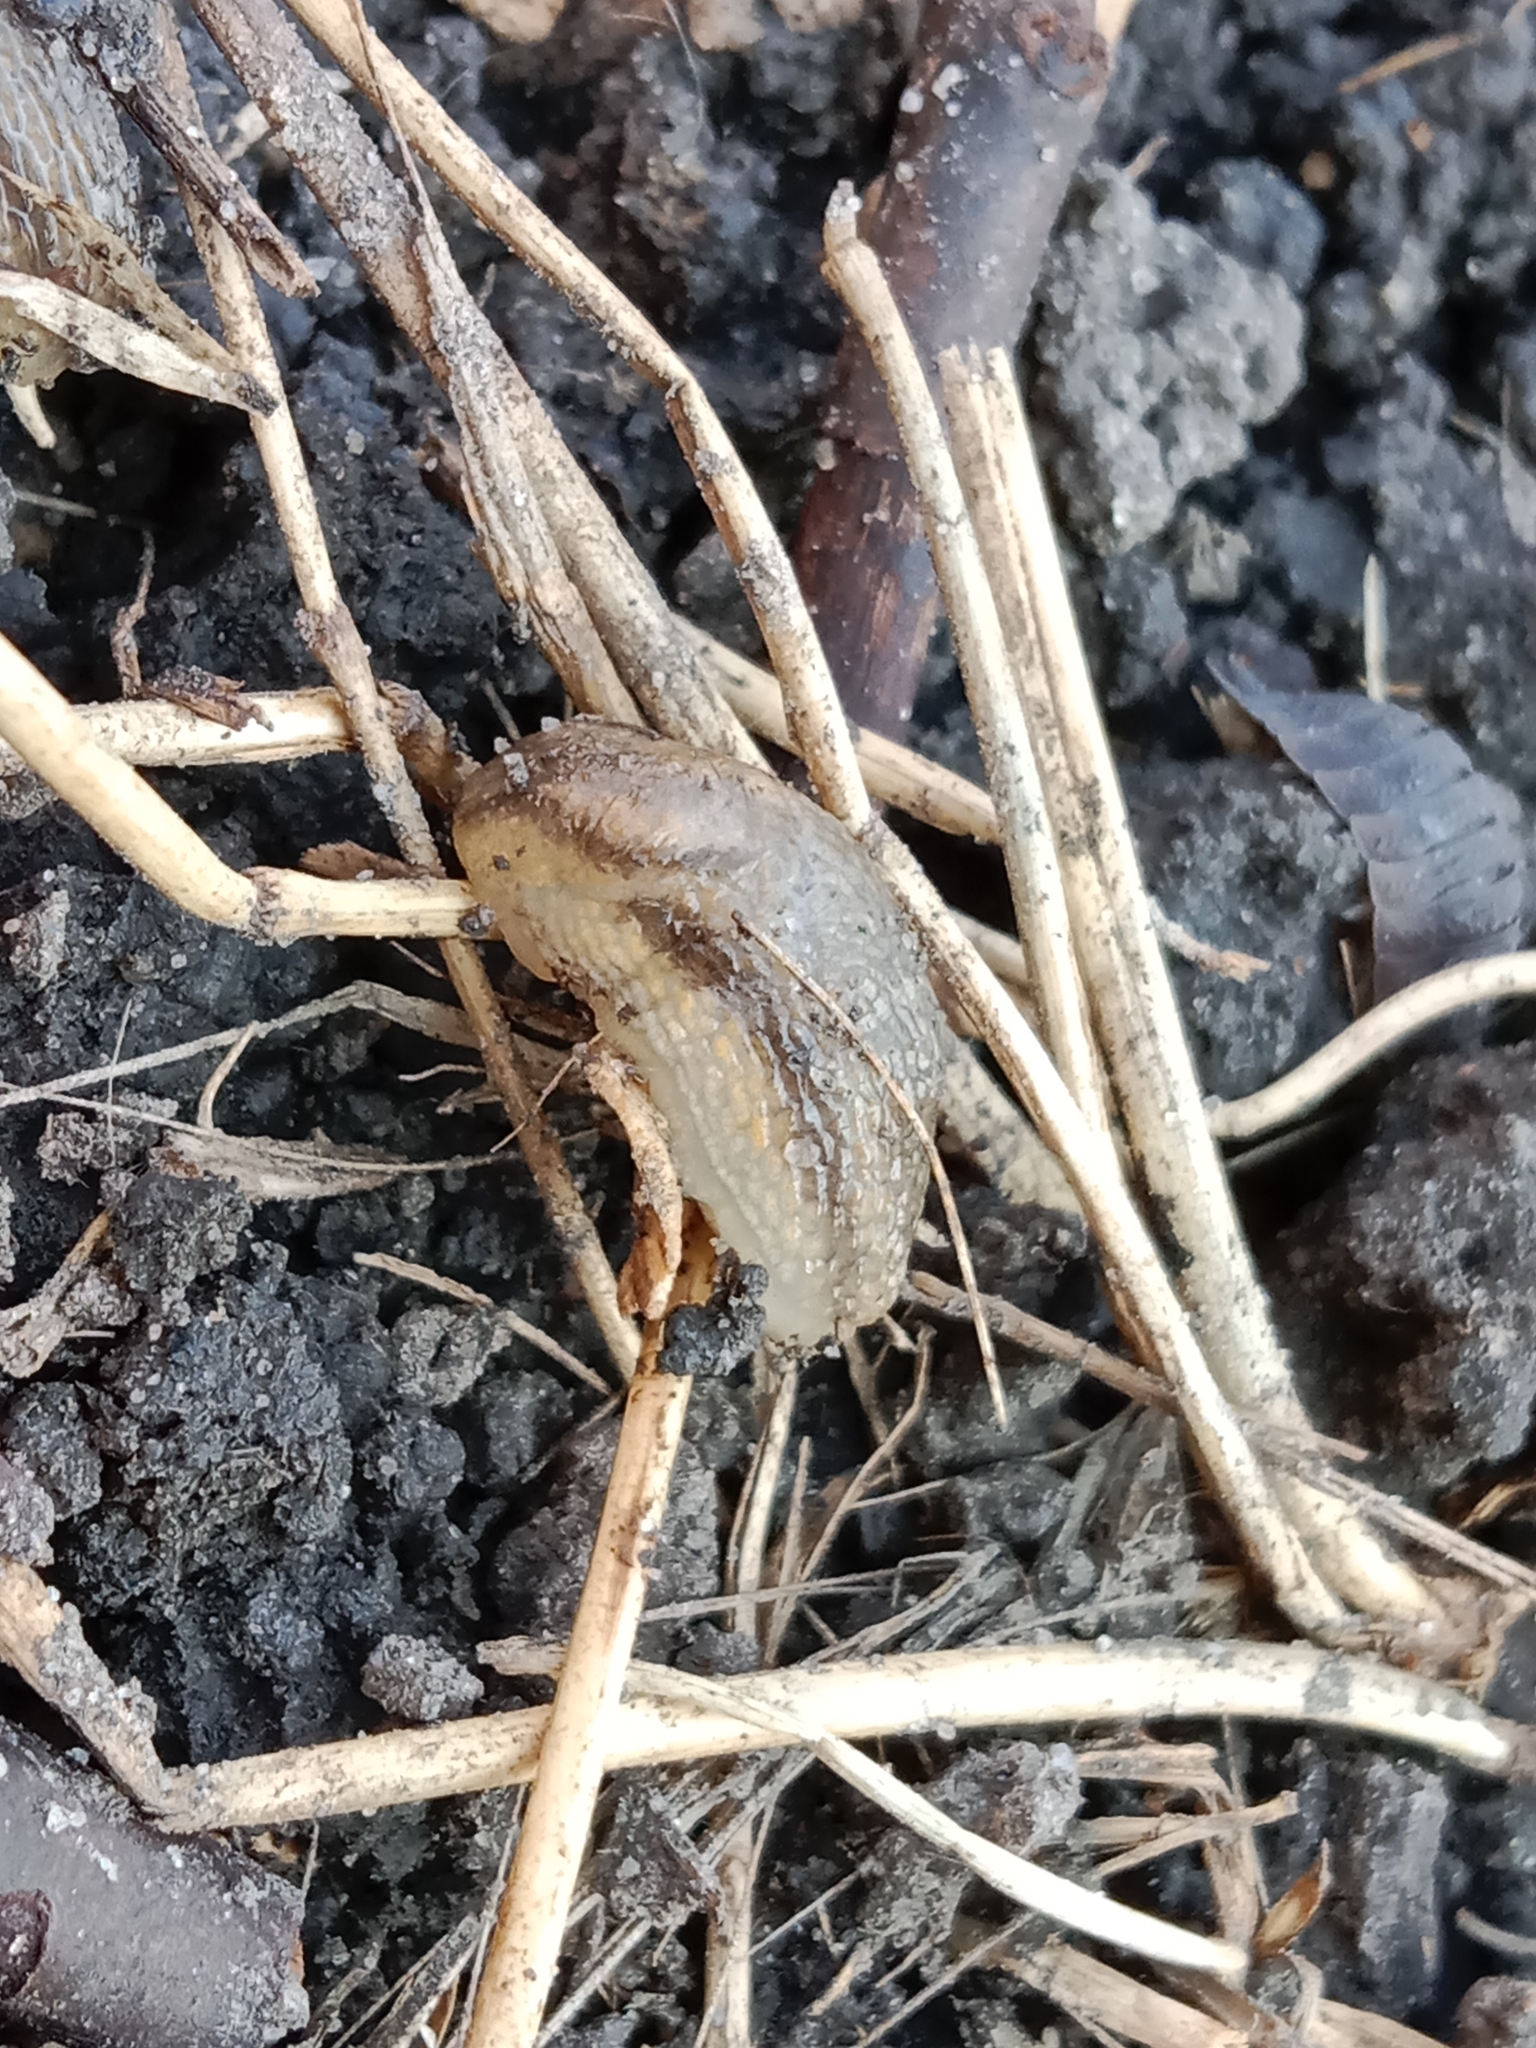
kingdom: Animalia
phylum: Mollusca
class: Gastropoda
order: Stylommatophora
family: Arionidae
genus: Arion
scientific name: Arion fasciatus
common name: Orange-banded arion
